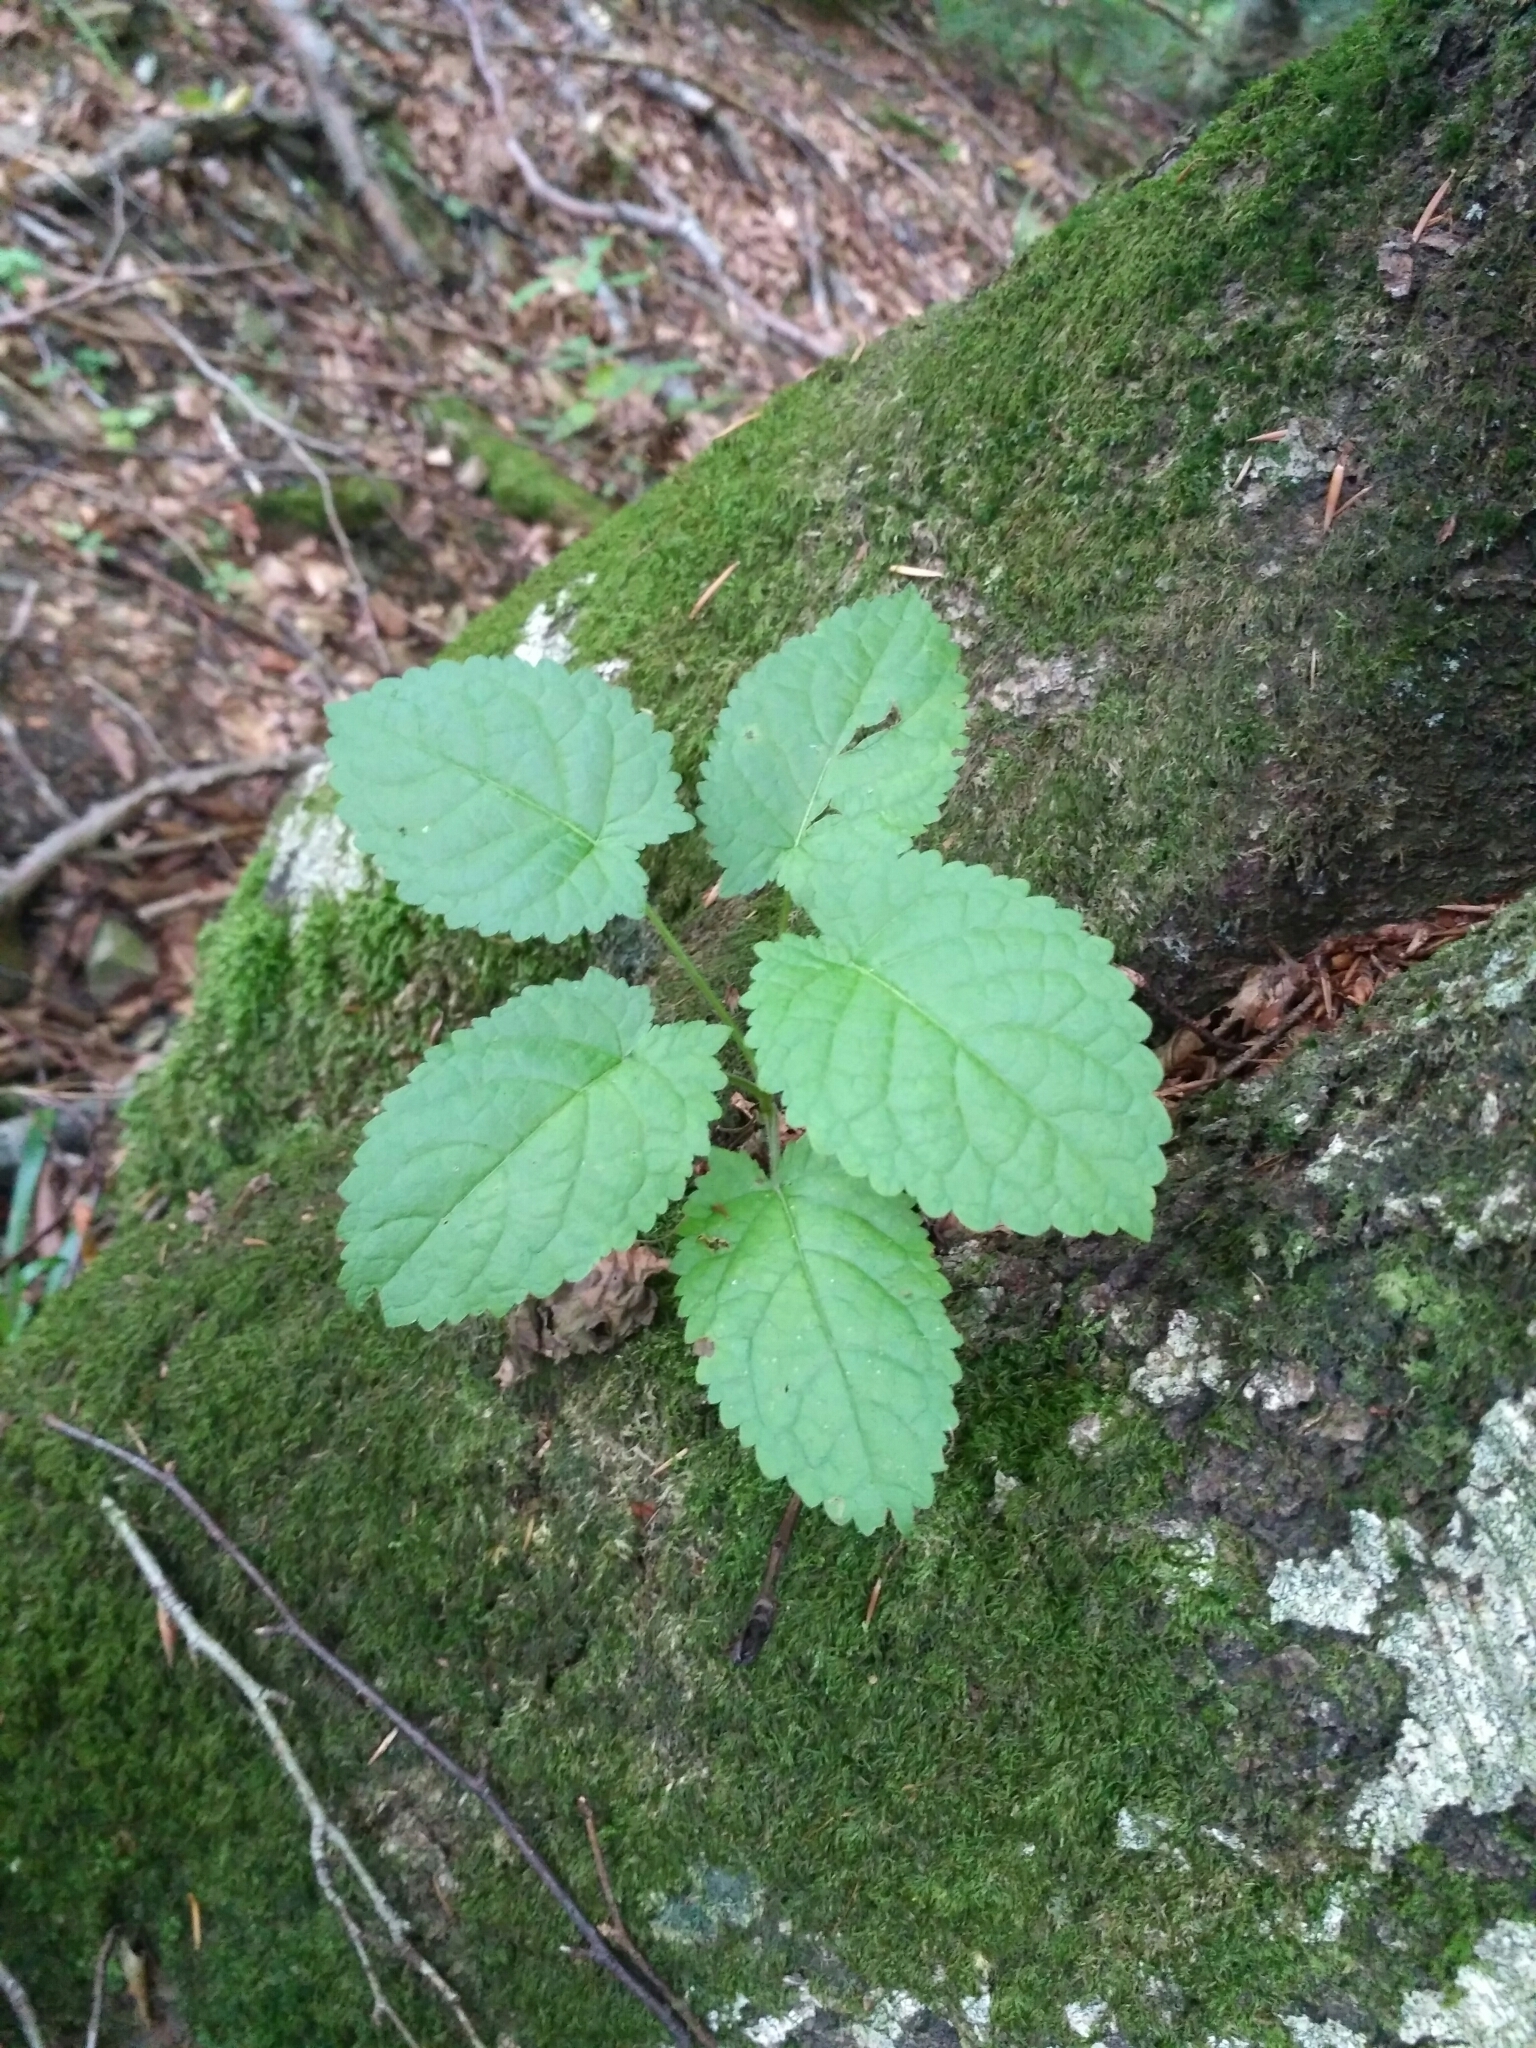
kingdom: Plantae
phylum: Tracheophyta
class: Magnoliopsida
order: Lamiales
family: Lamiaceae
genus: Salvia
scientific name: Salvia glutinosa
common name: Sticky clary
